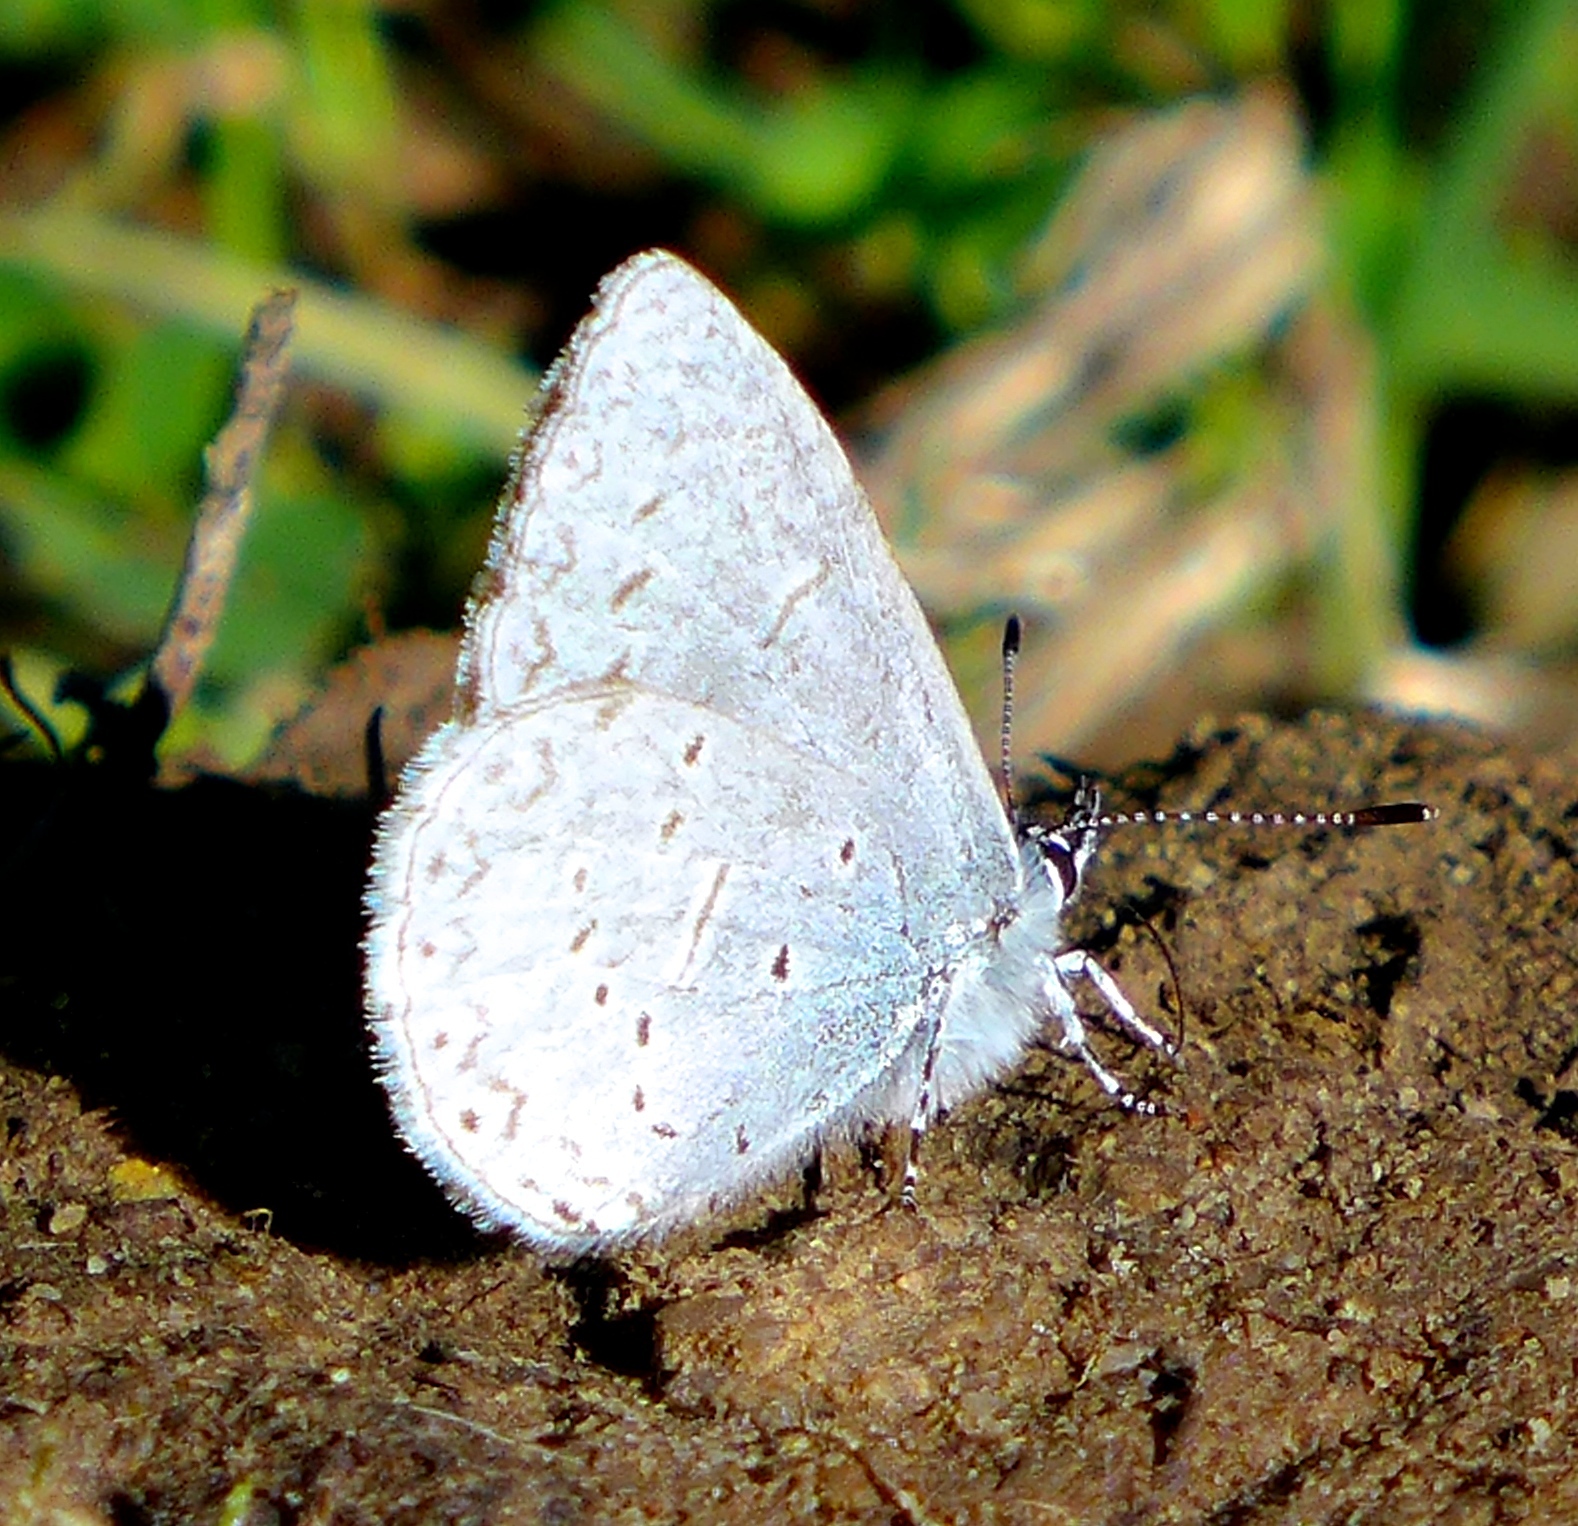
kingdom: Animalia
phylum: Arthropoda
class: Insecta
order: Lepidoptera
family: Lycaenidae
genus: Celastrina
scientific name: Celastrina ladon
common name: Spring azure
